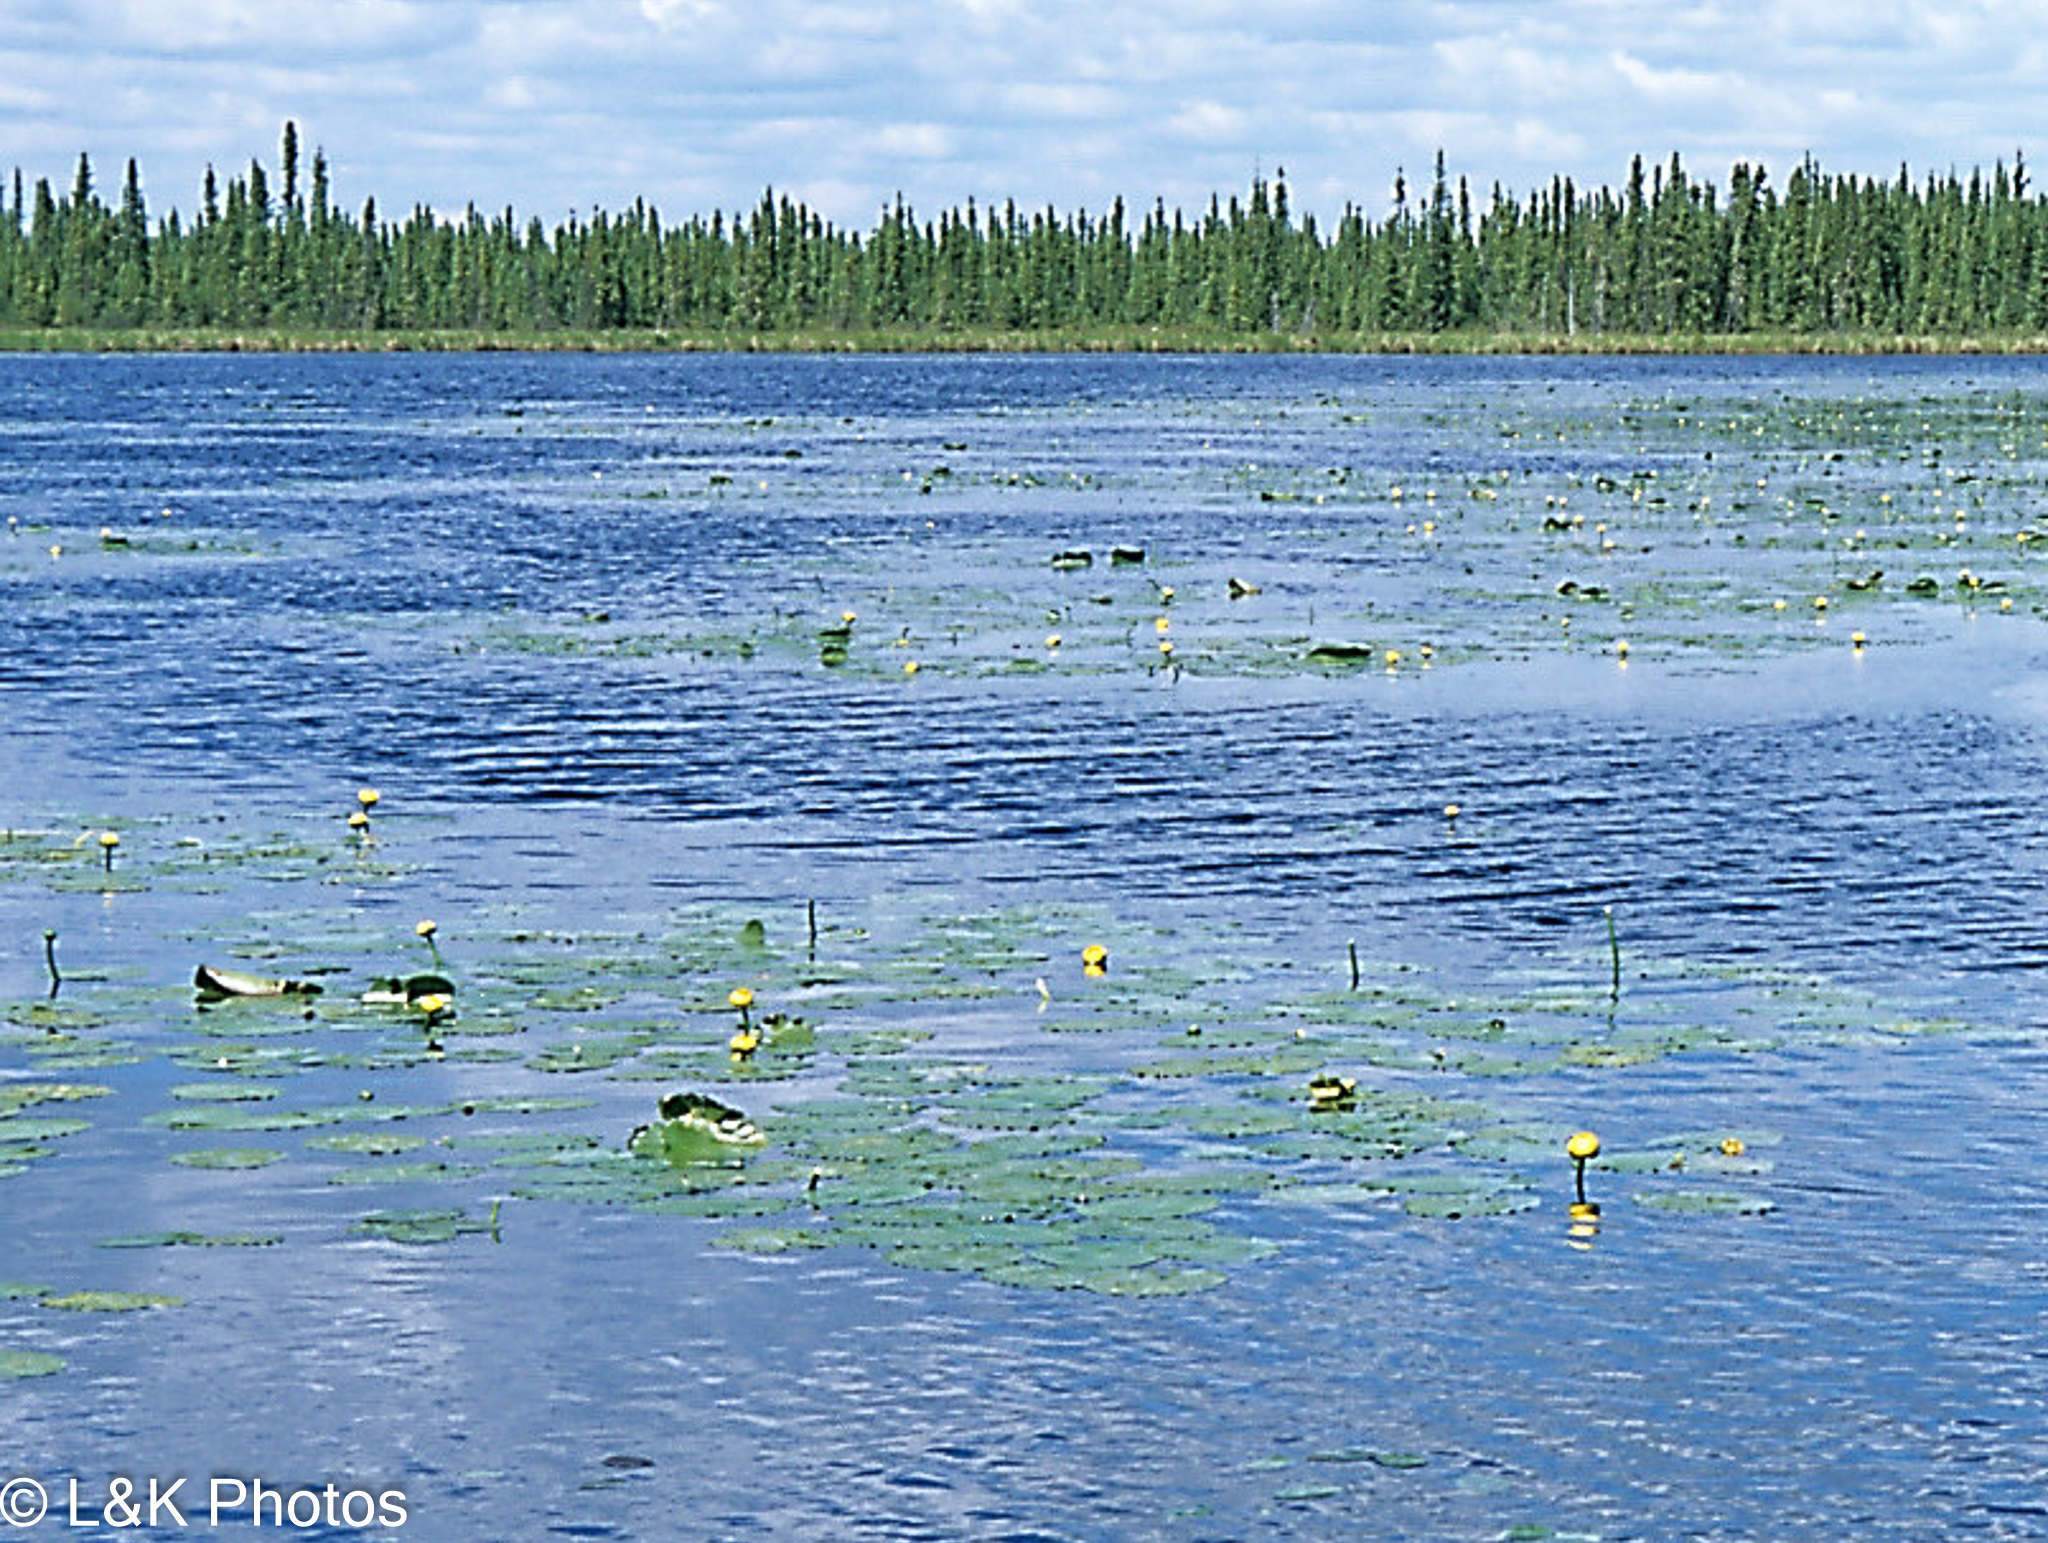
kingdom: Plantae
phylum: Tracheophyta
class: Magnoliopsida
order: Nymphaeales
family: Nymphaeaceae
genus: Nuphar
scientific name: Nuphar variegata
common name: Beaver-root
